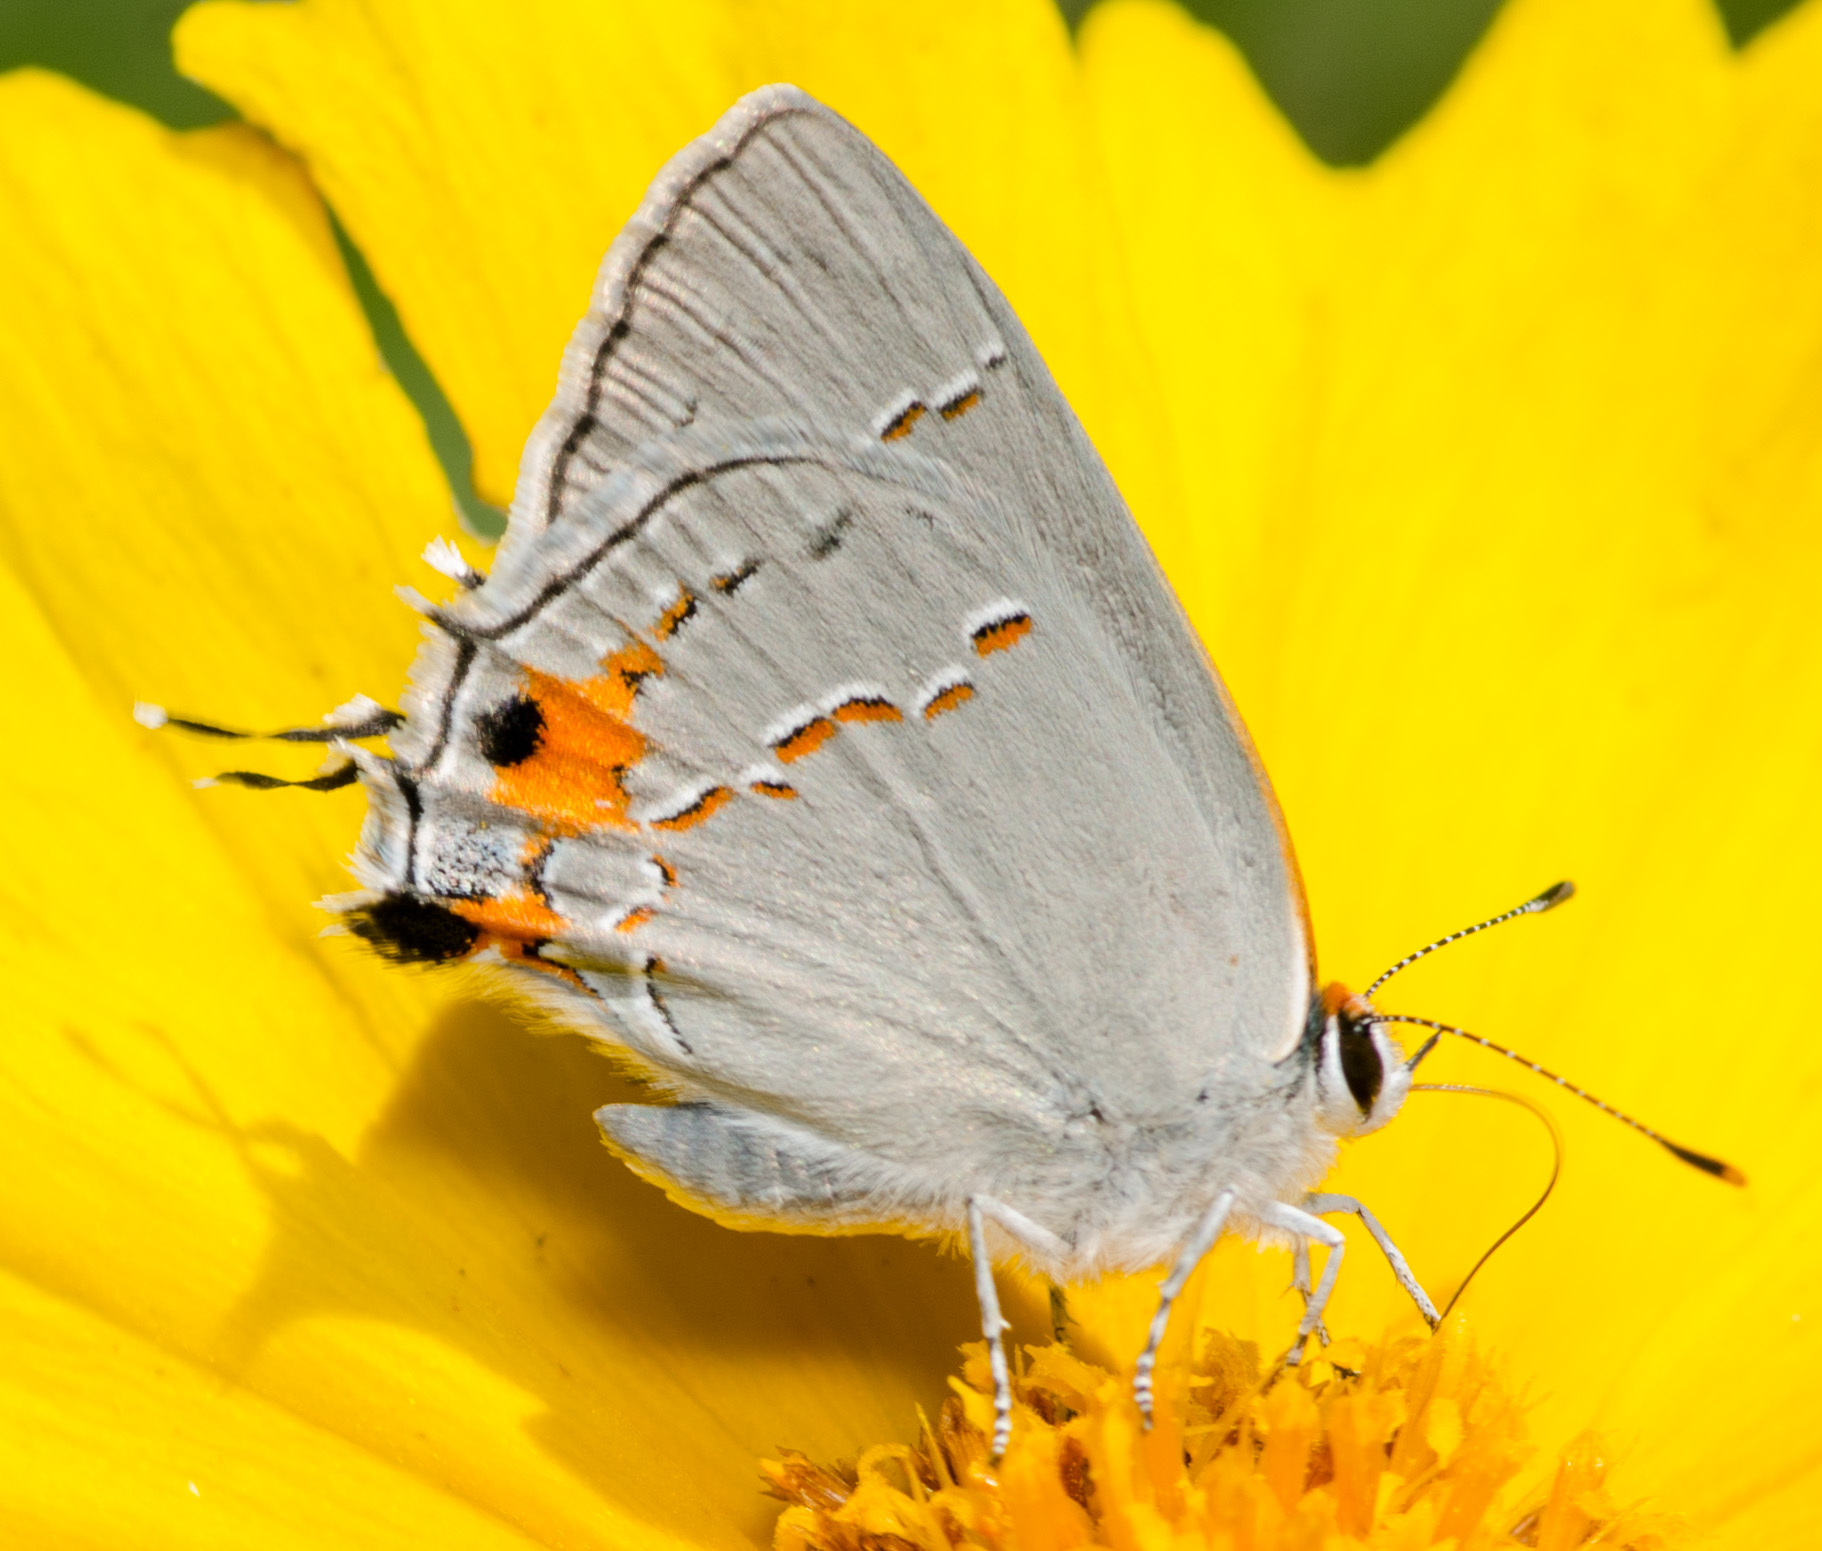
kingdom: Animalia
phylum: Arthropoda
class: Insecta
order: Lepidoptera
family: Lycaenidae
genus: Strymon
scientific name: Strymon melinus
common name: Gray hairstreak
